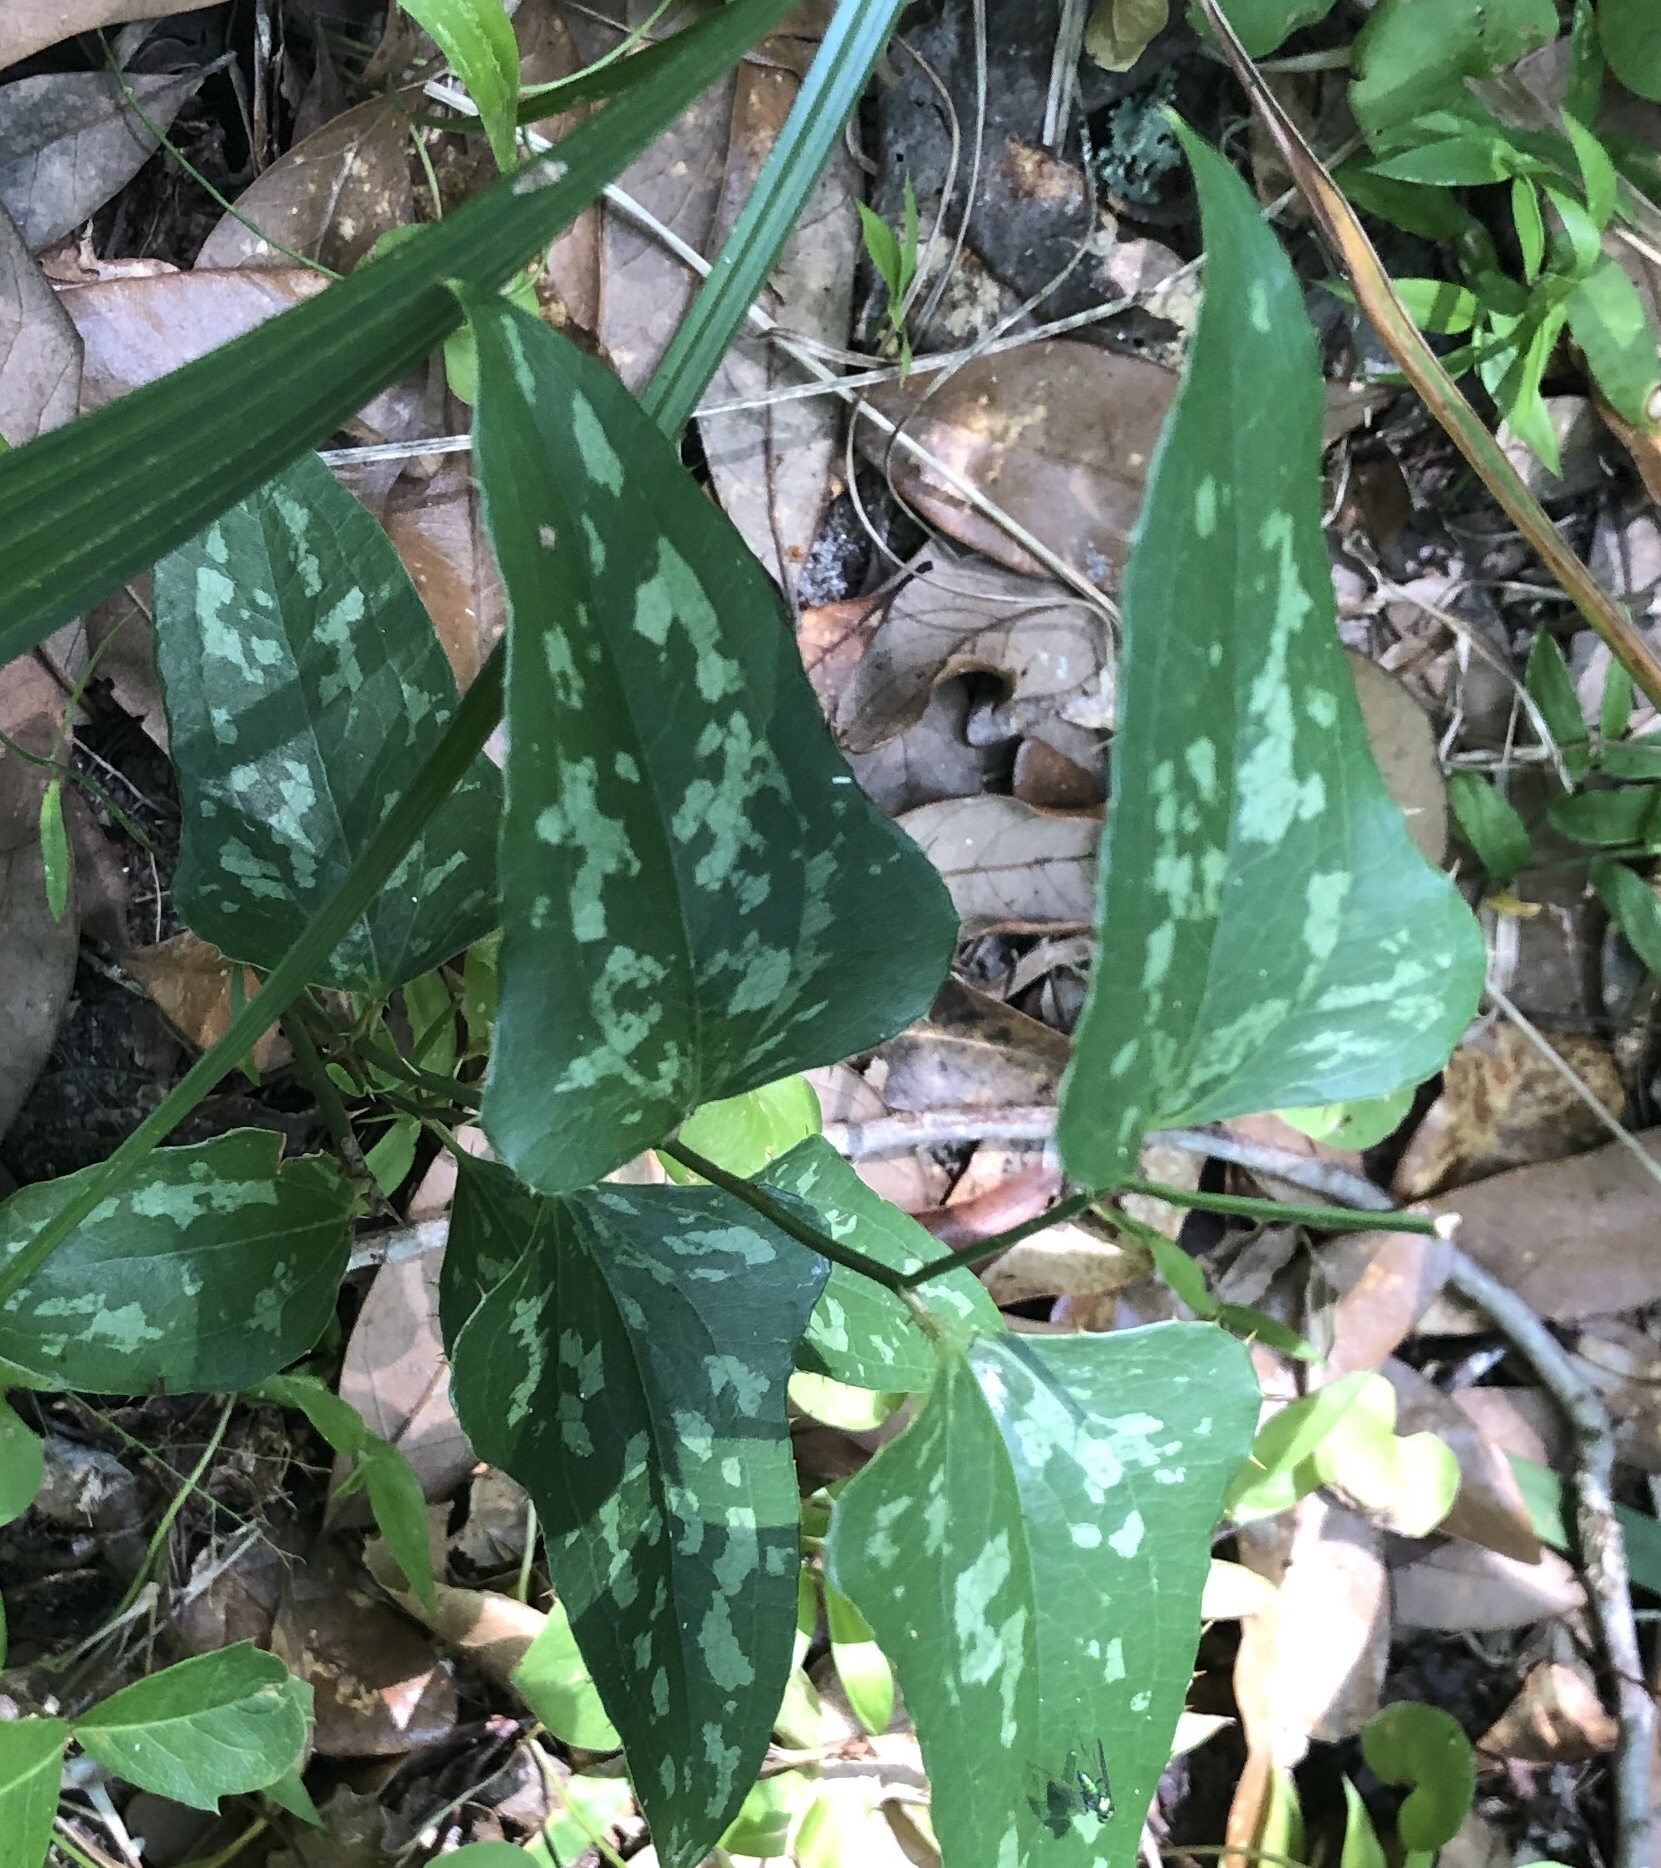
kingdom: Plantae
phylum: Tracheophyta
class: Liliopsida
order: Liliales
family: Smilacaceae
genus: Smilax
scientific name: Smilax bona-nox
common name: Catbrier
